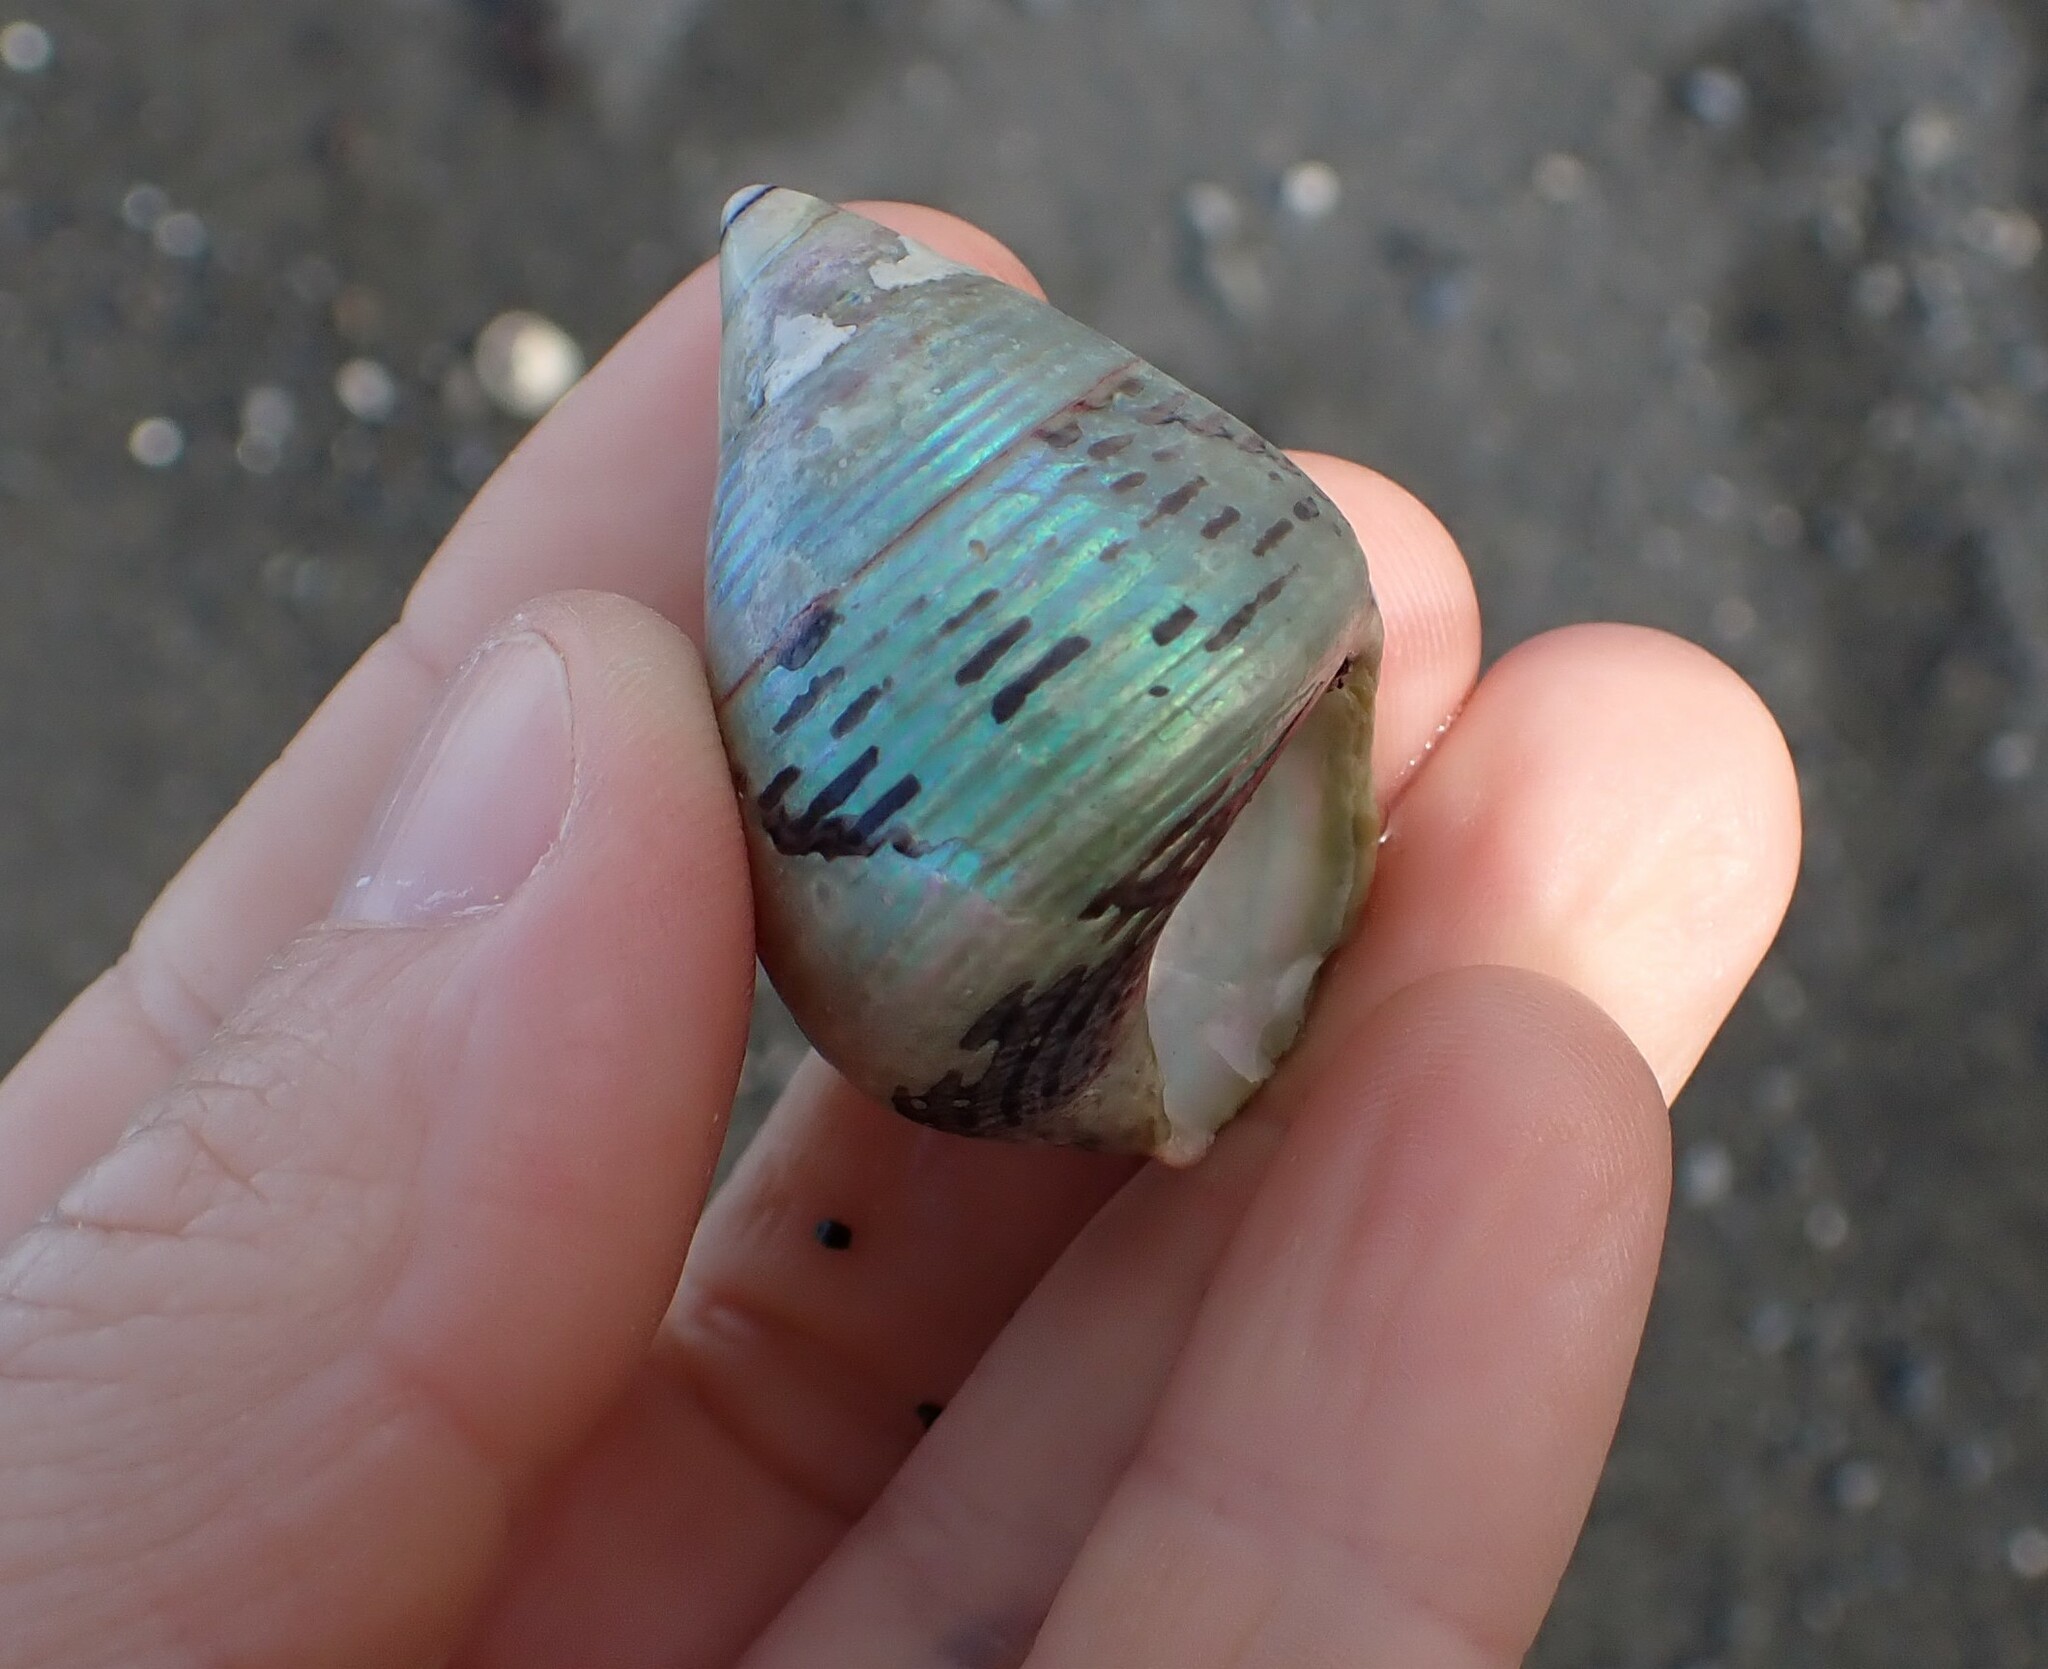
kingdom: Animalia
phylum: Mollusca
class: Gastropoda
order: Trochida
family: Trochidae
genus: Cantharidus
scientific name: Cantharidus opalus
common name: Opal jewel topsnail
